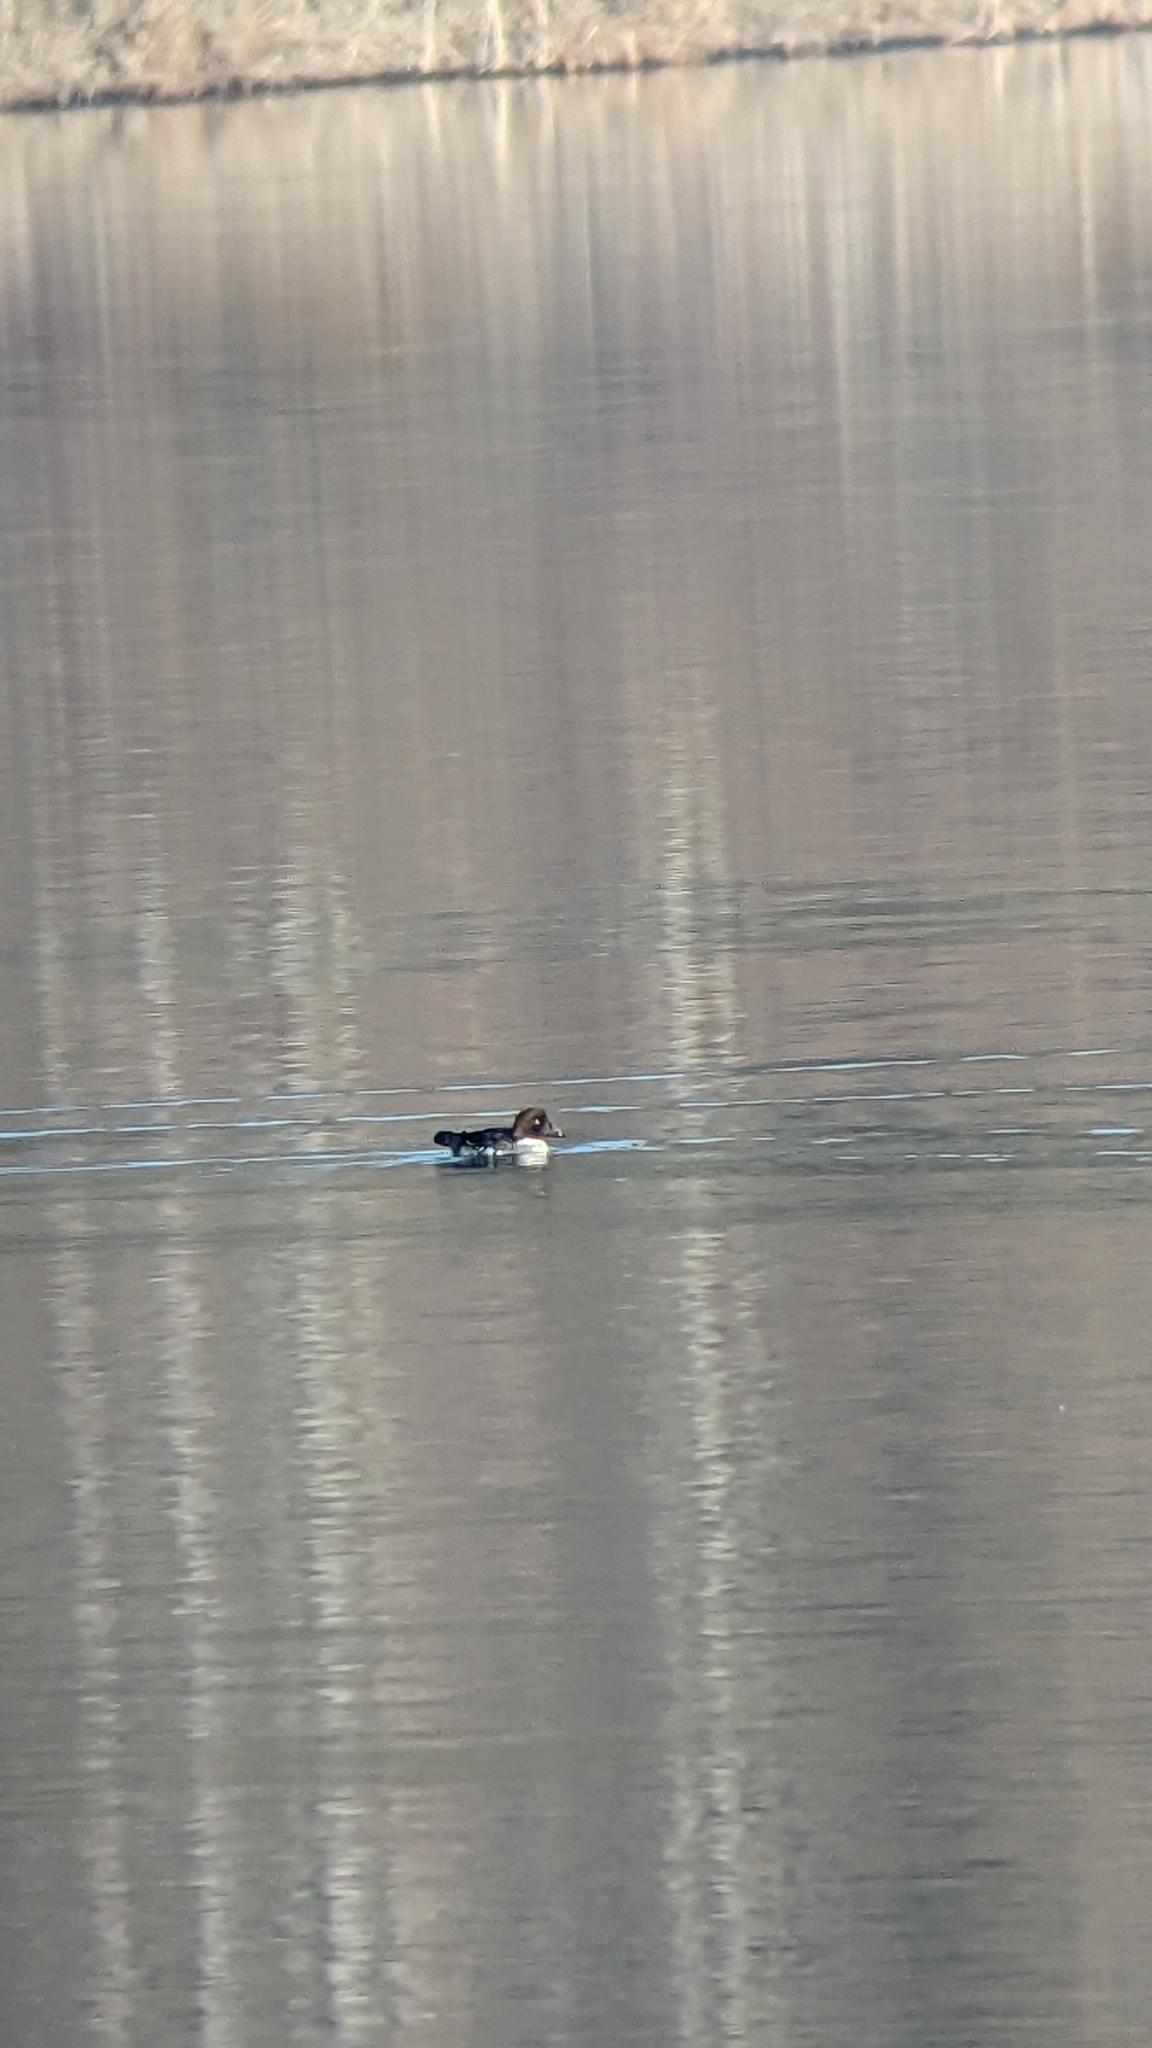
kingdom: Animalia
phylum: Chordata
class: Aves
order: Anseriformes
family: Anatidae
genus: Bucephala
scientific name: Bucephala clangula
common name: Common goldeneye
